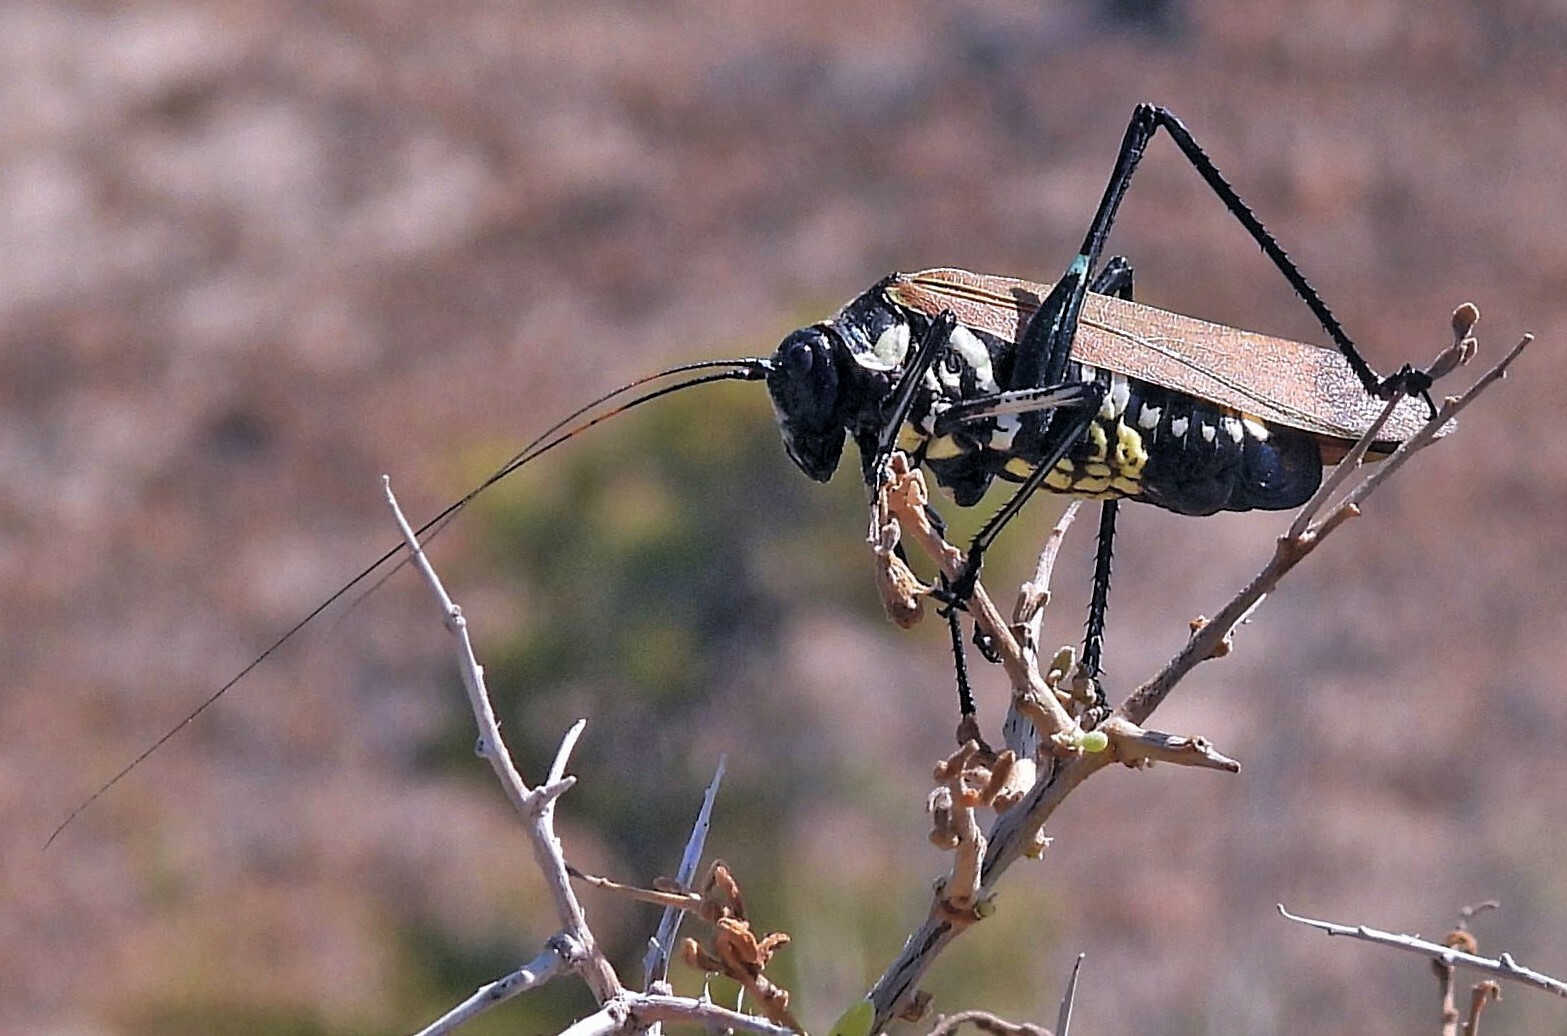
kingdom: Animalia
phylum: Arthropoda
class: Insecta
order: Orthoptera
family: Tettigoniidae
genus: Scaphura
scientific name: Scaphura elegans
